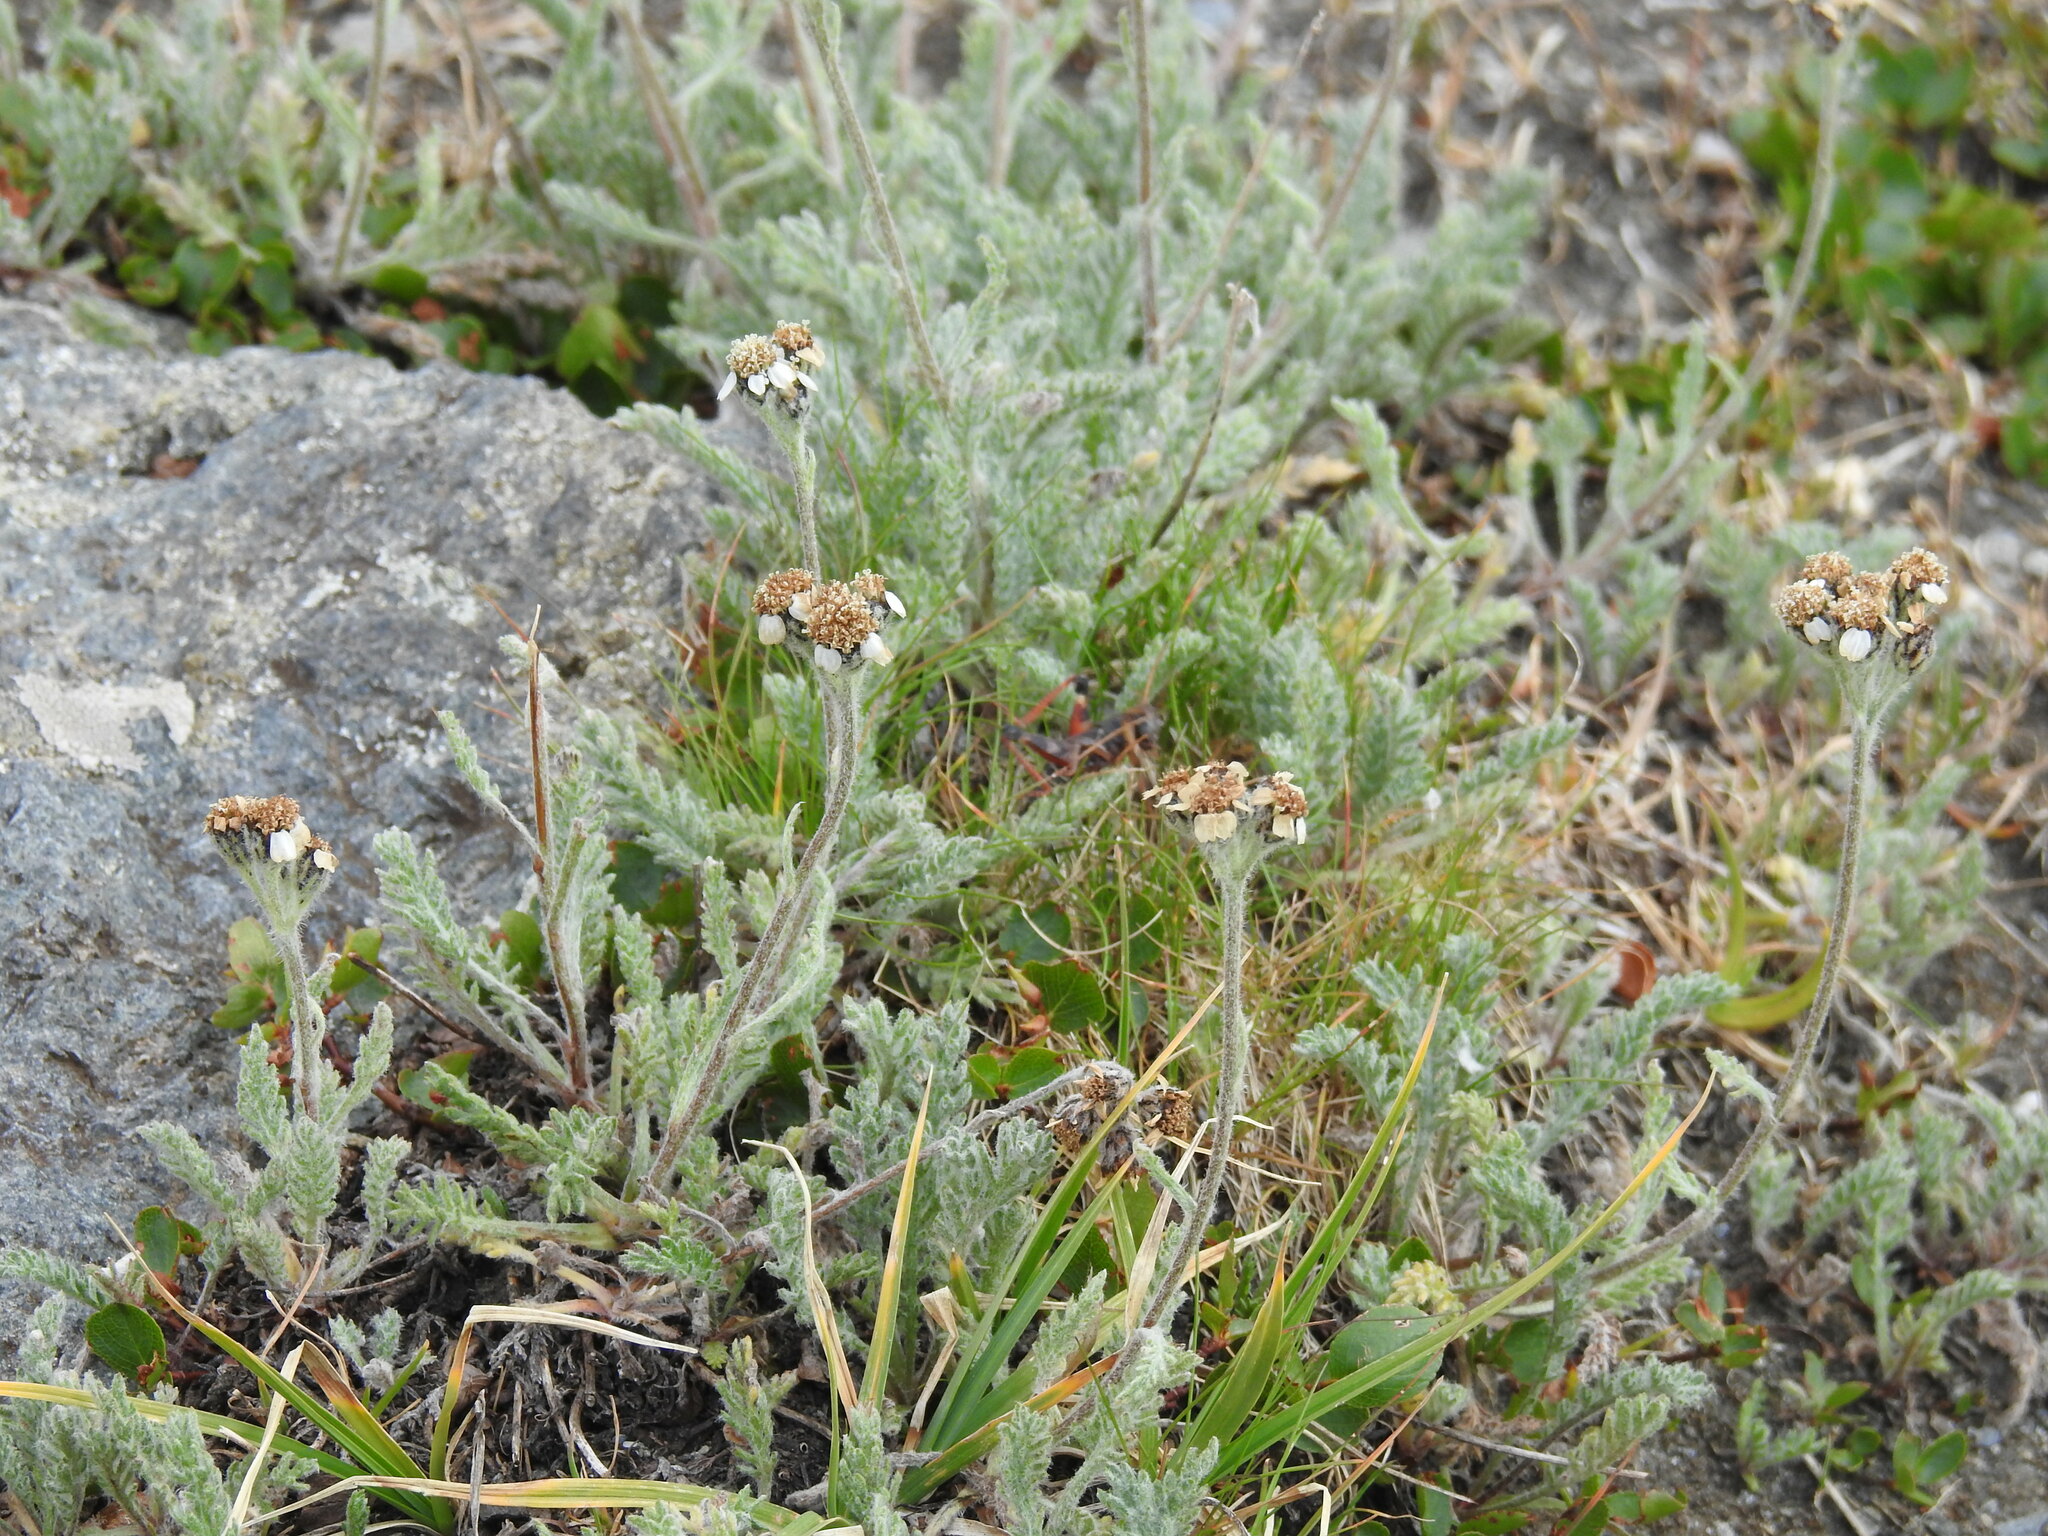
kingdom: Plantae
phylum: Tracheophyta
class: Magnoliopsida
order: Asterales
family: Asteraceae
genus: Achillea
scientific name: Achillea nana
